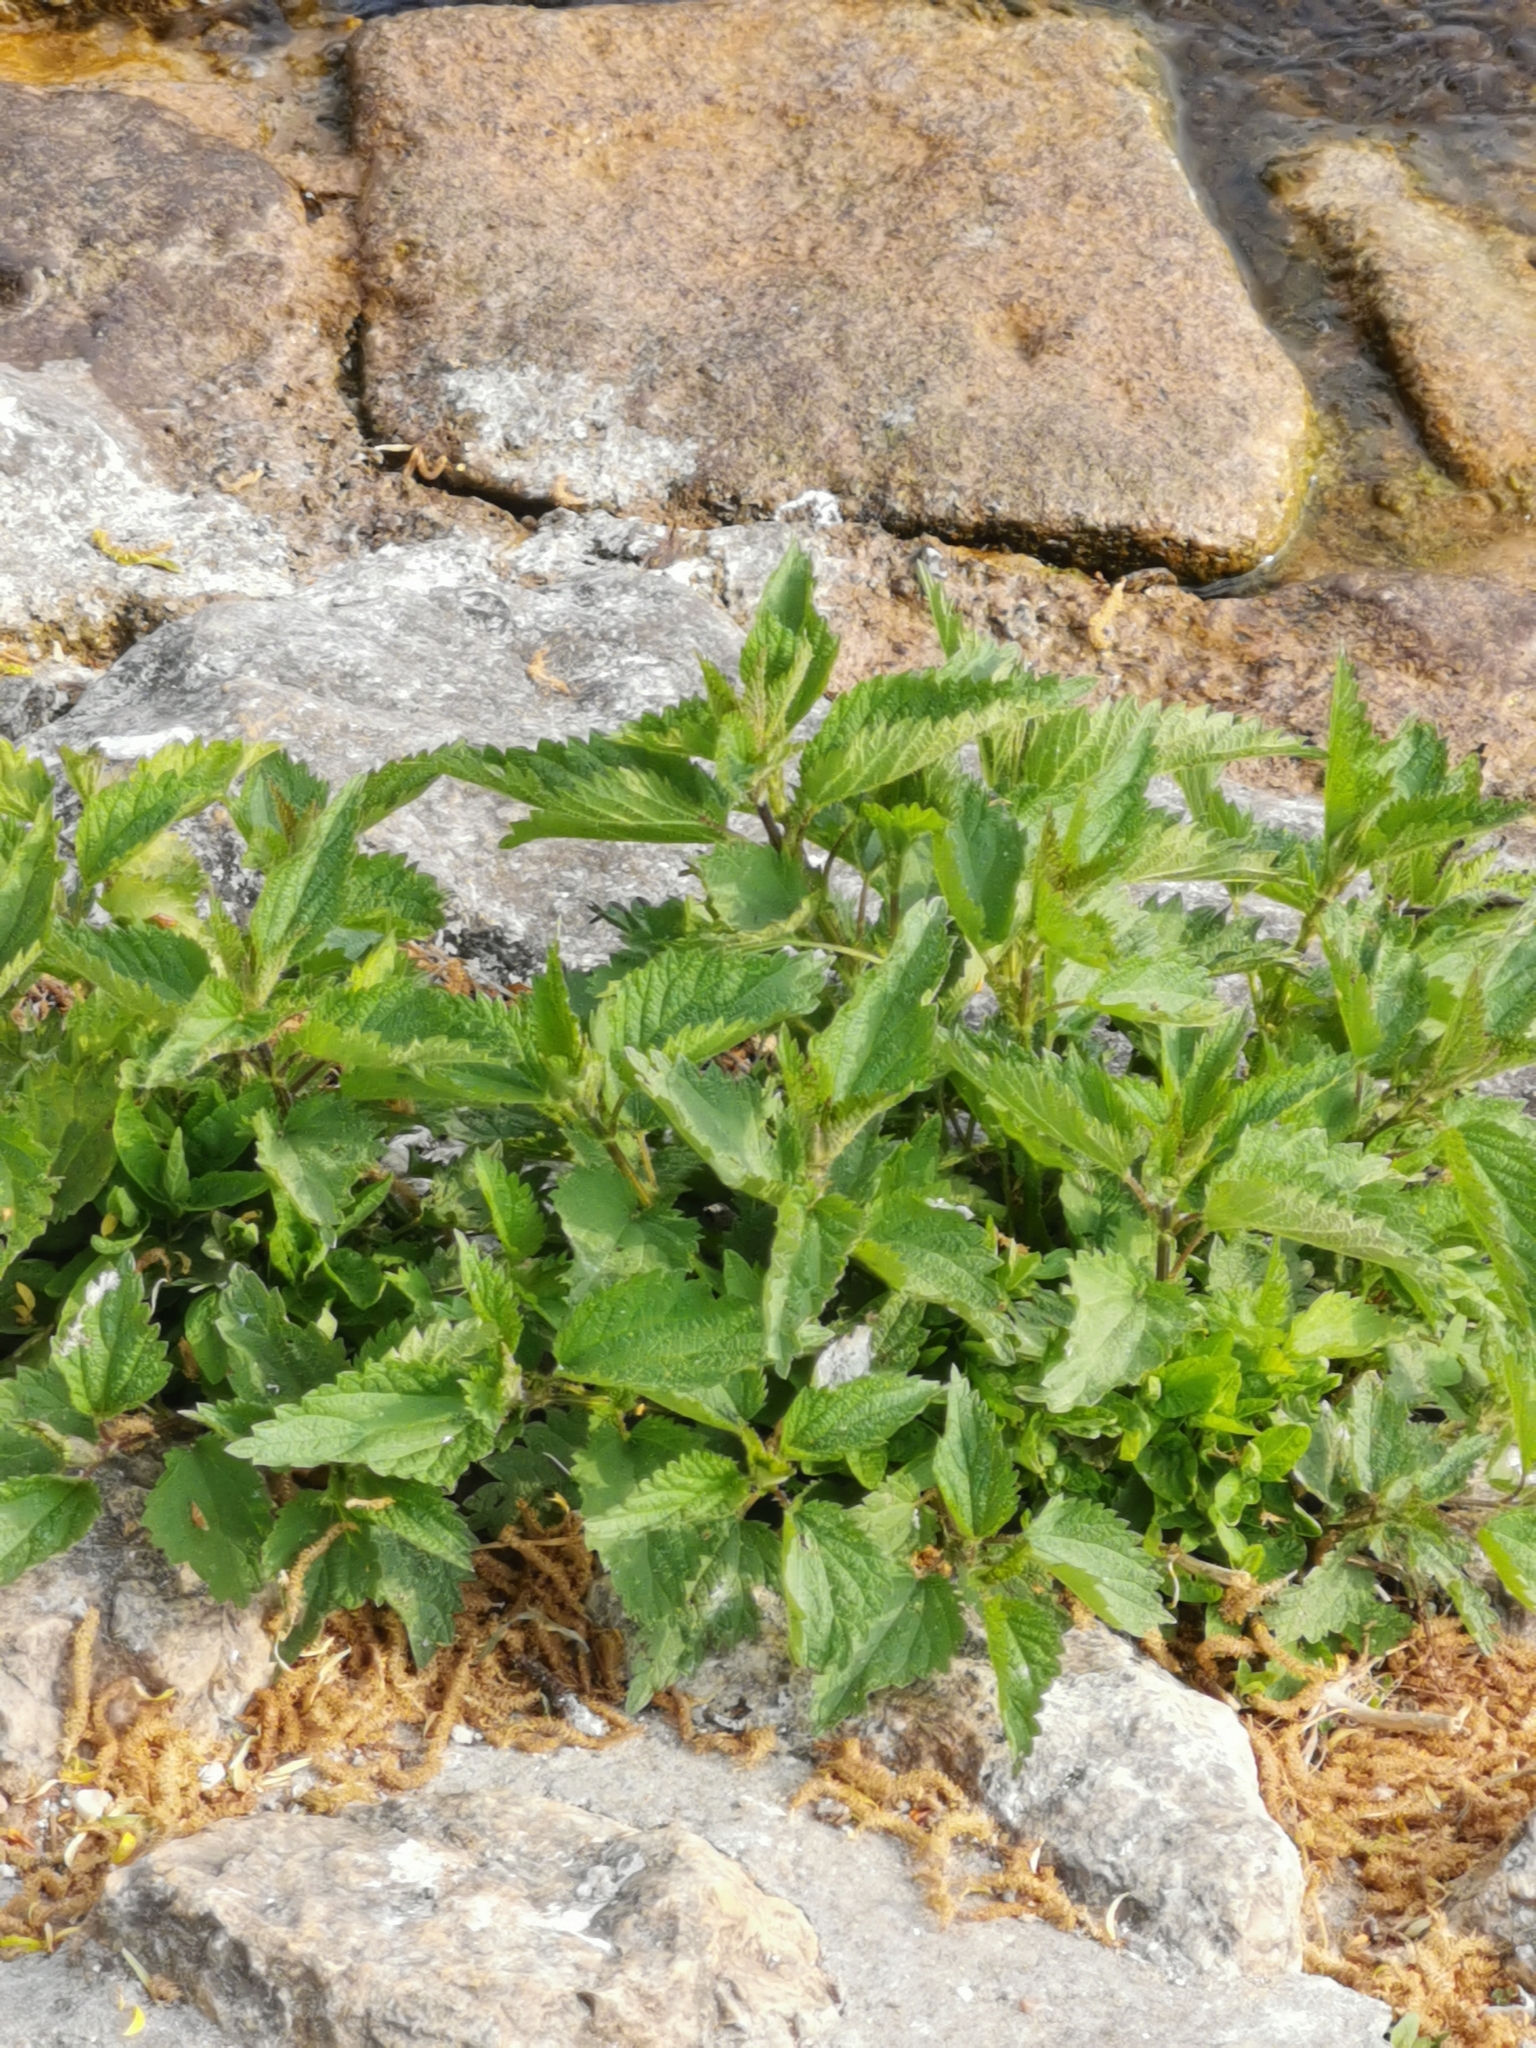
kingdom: Plantae
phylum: Tracheophyta
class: Magnoliopsida
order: Rosales
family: Urticaceae
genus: Urtica
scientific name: Urtica dioica
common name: Common nettle
